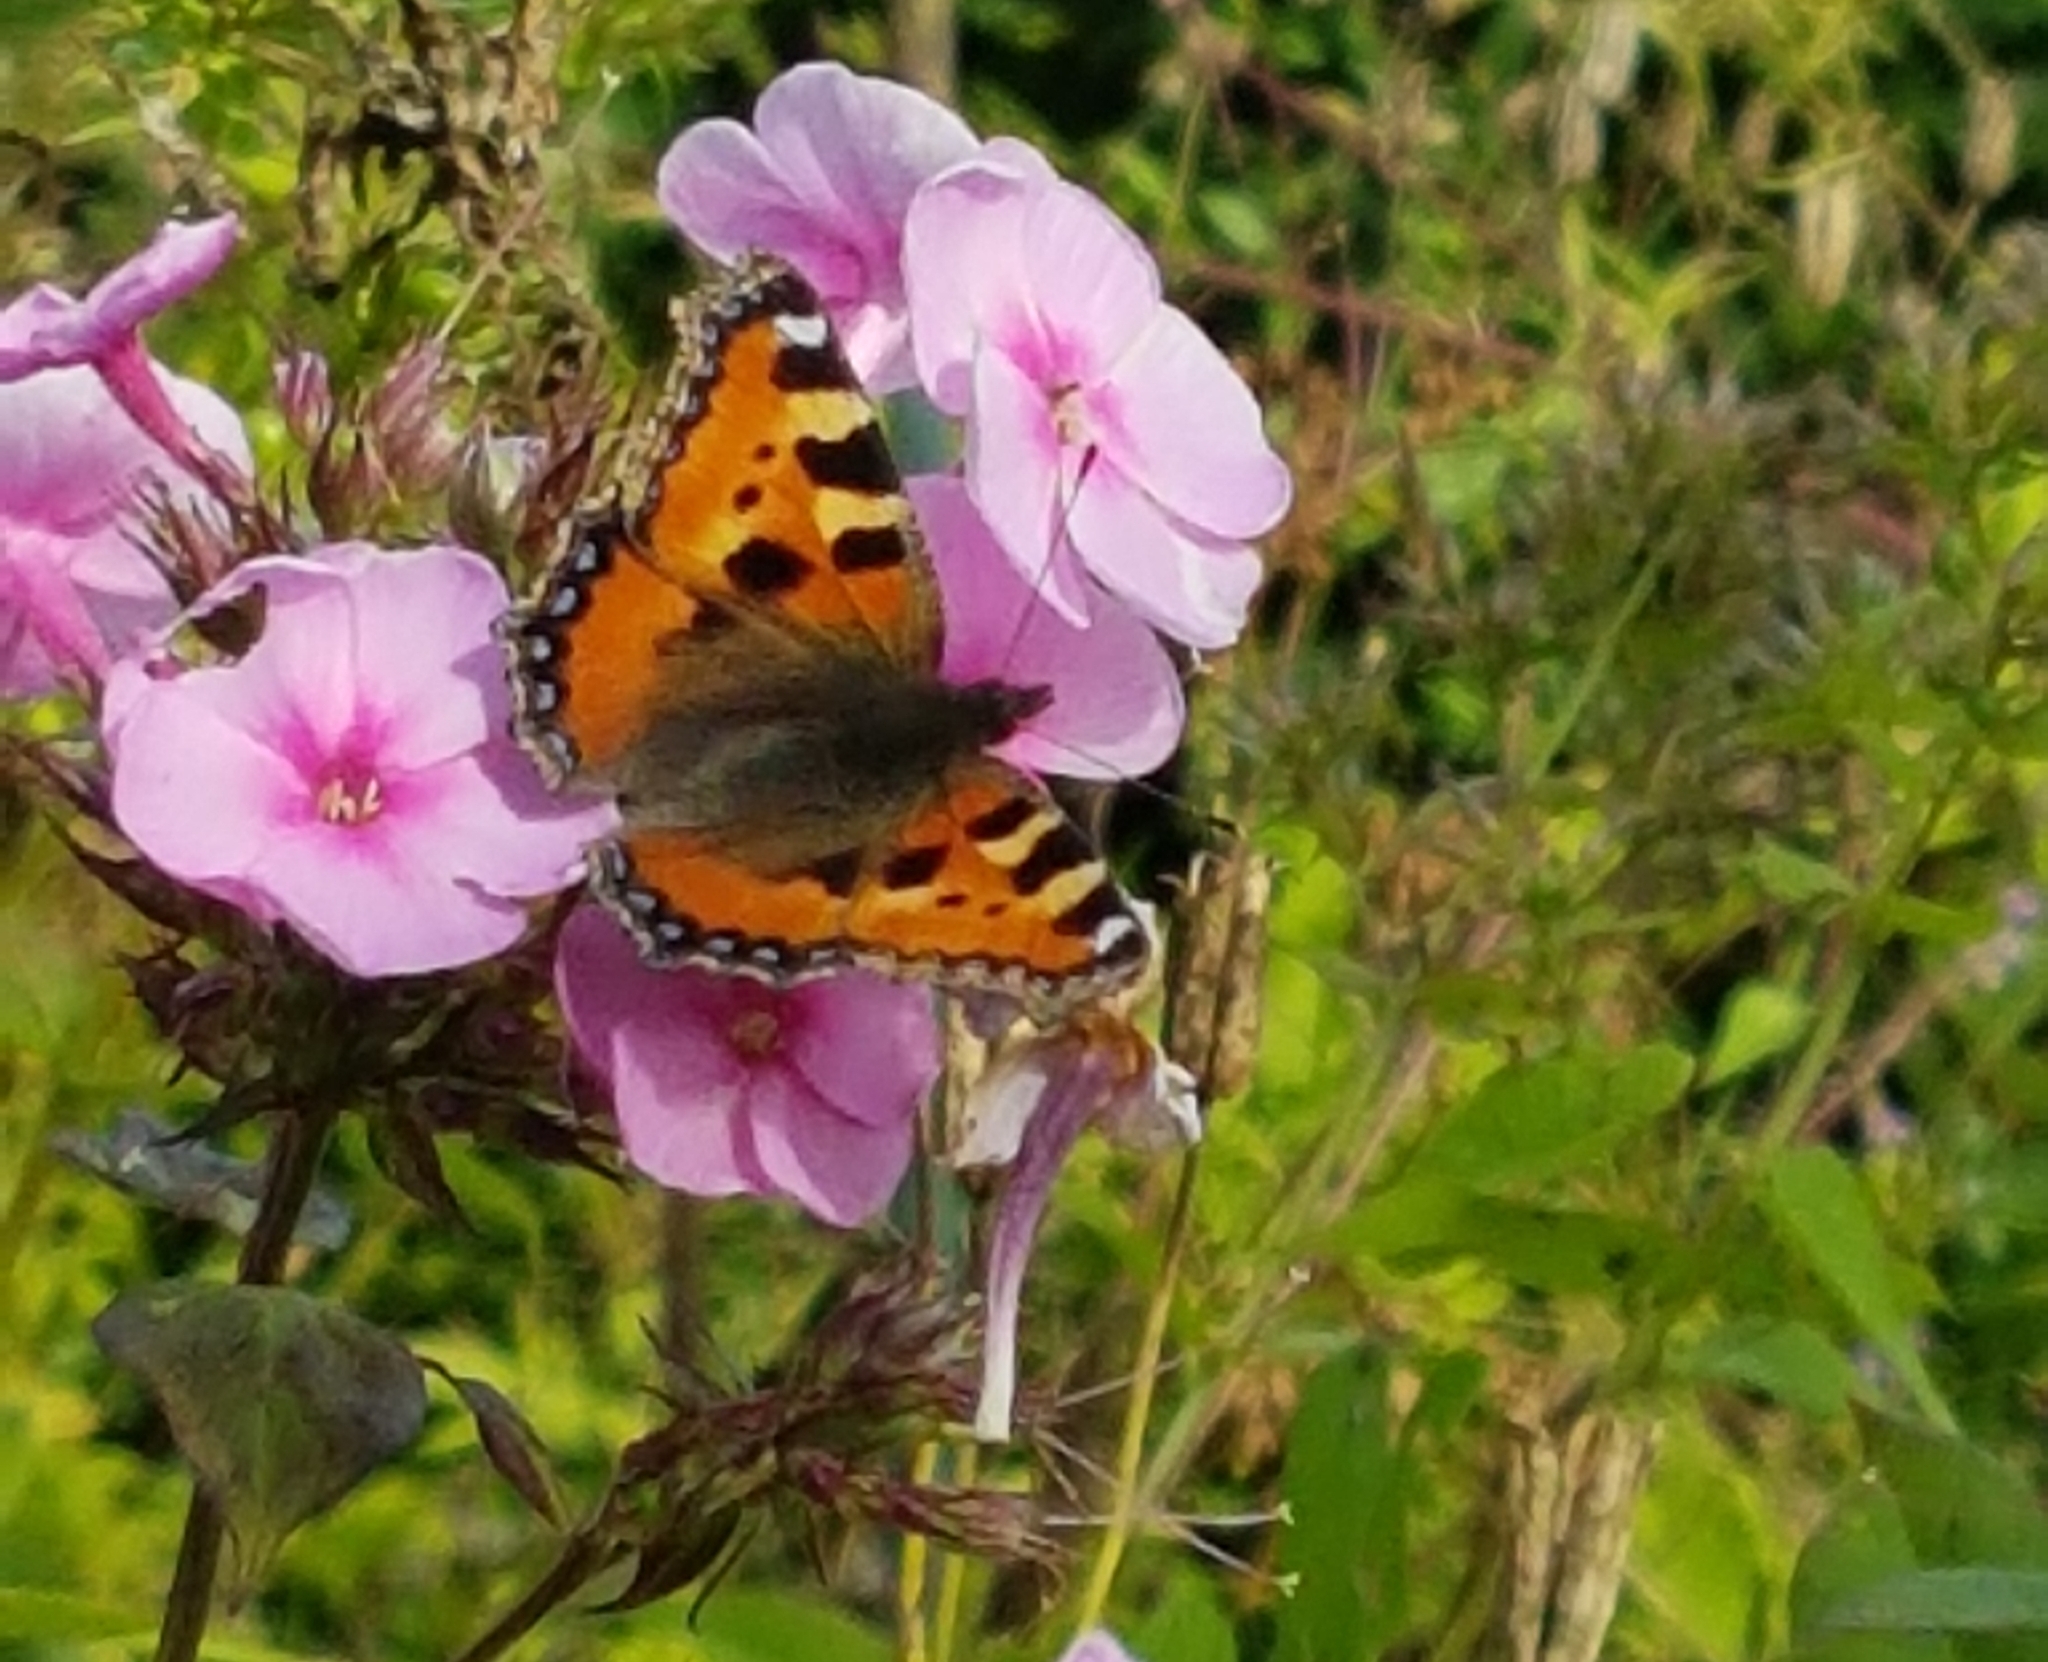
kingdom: Animalia
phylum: Arthropoda
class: Insecta
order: Lepidoptera
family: Nymphalidae
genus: Aglais
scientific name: Aglais urticae
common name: Small tortoiseshell
